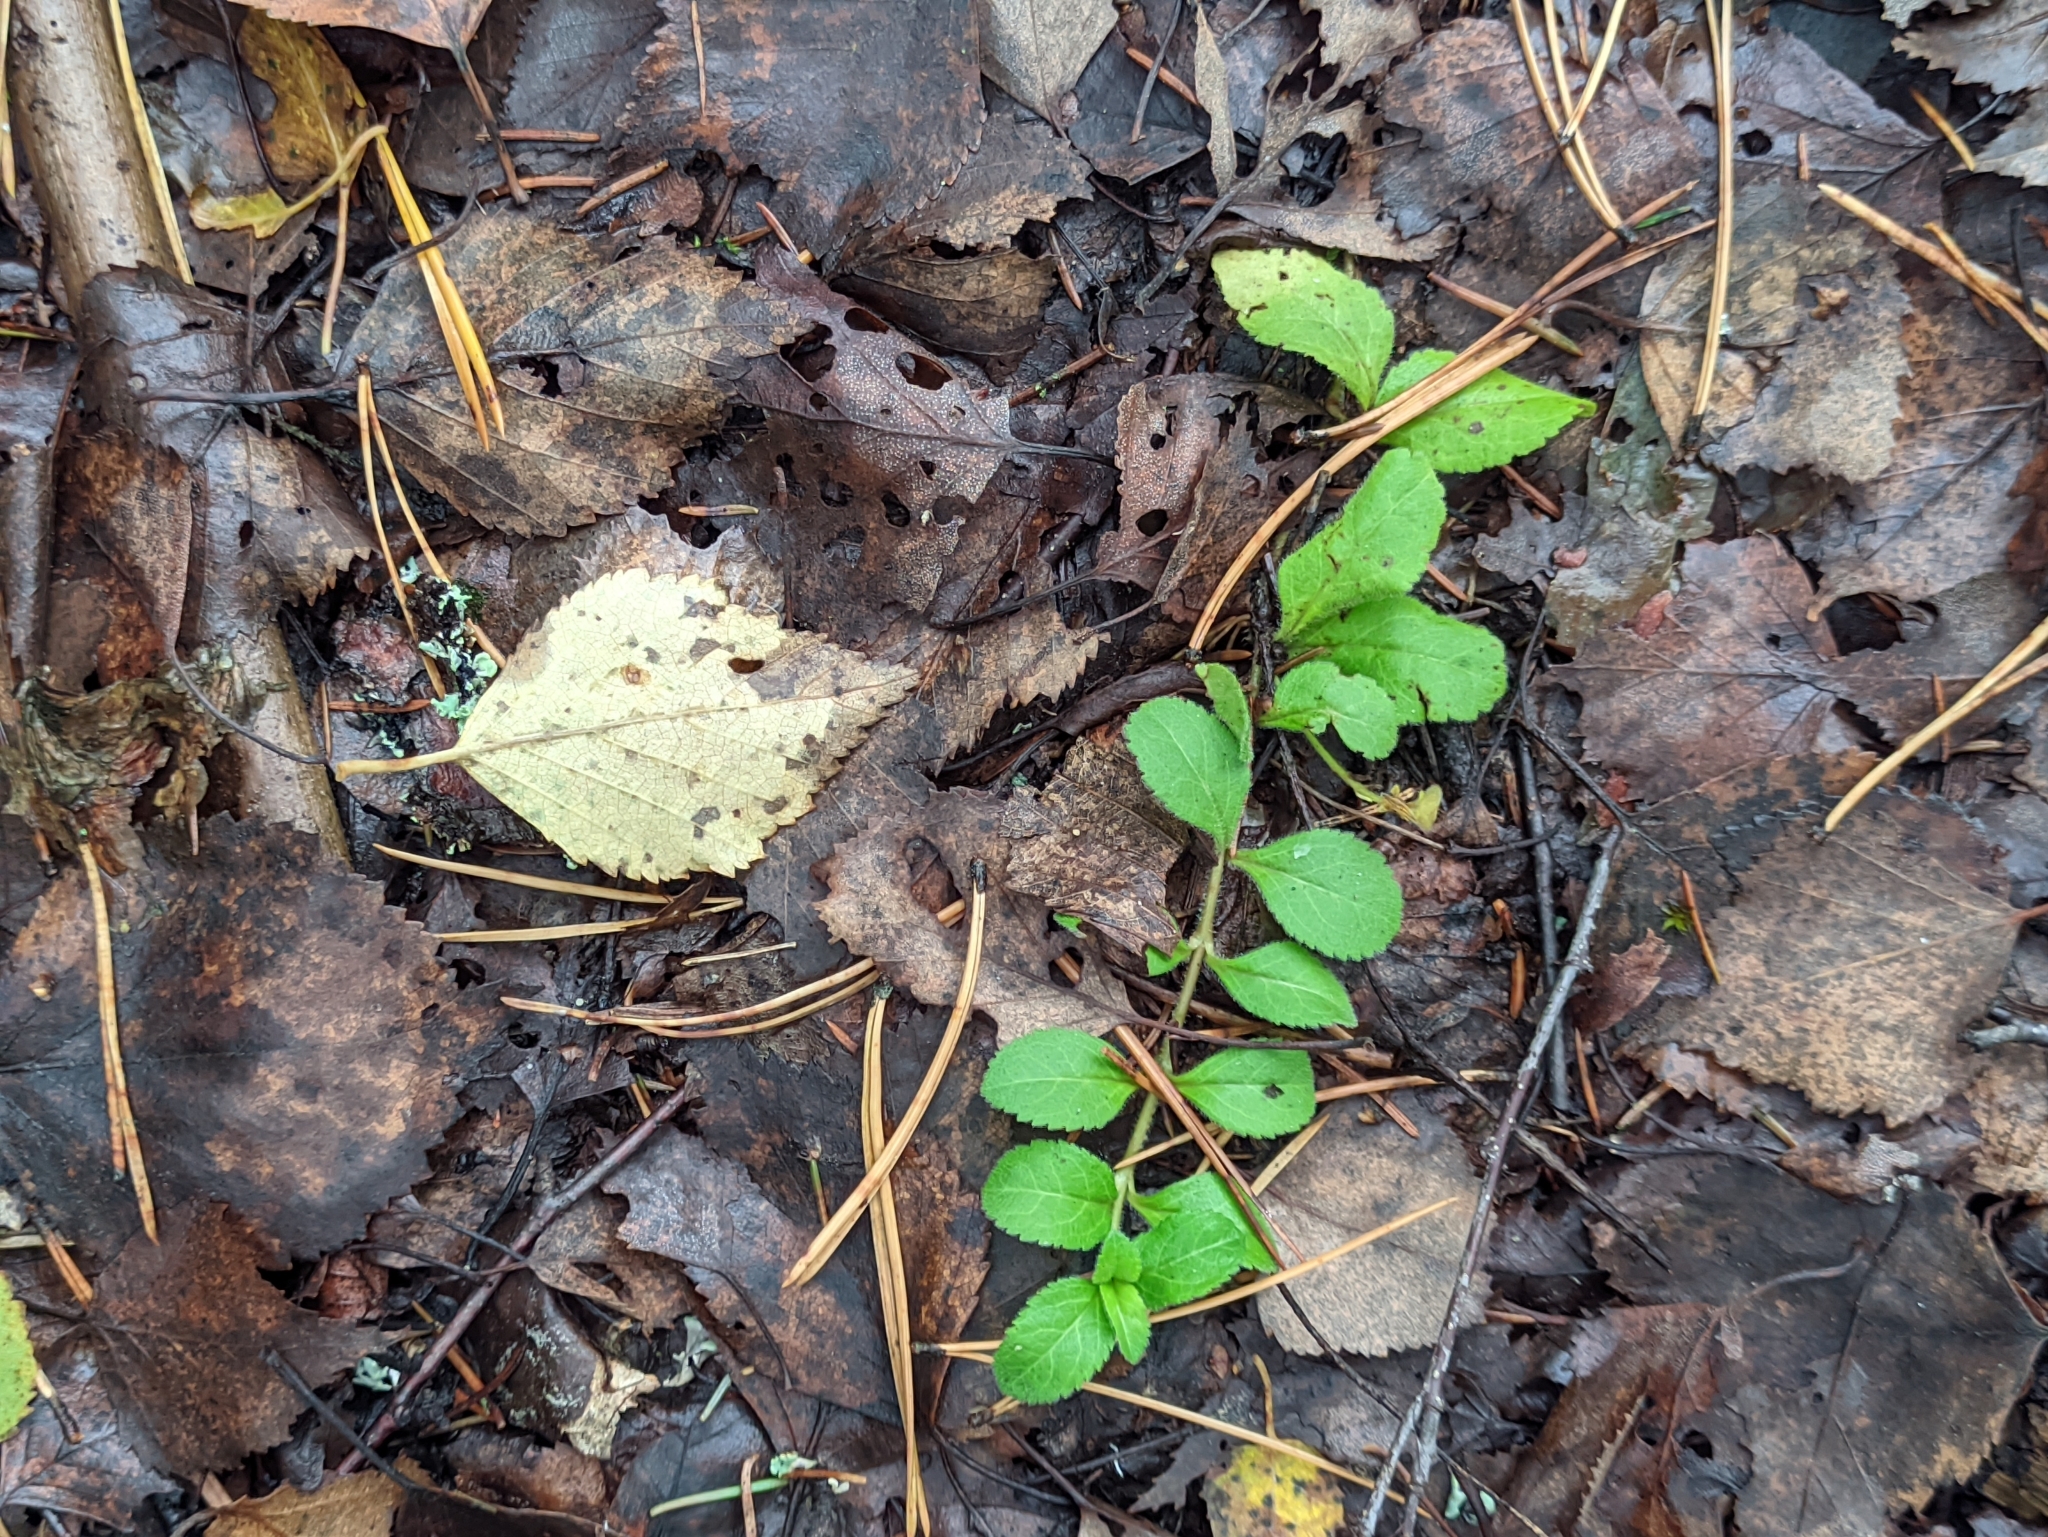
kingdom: Plantae
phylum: Tracheophyta
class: Magnoliopsida
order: Lamiales
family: Plantaginaceae
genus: Veronica
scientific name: Veronica officinalis
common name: Common speedwell
